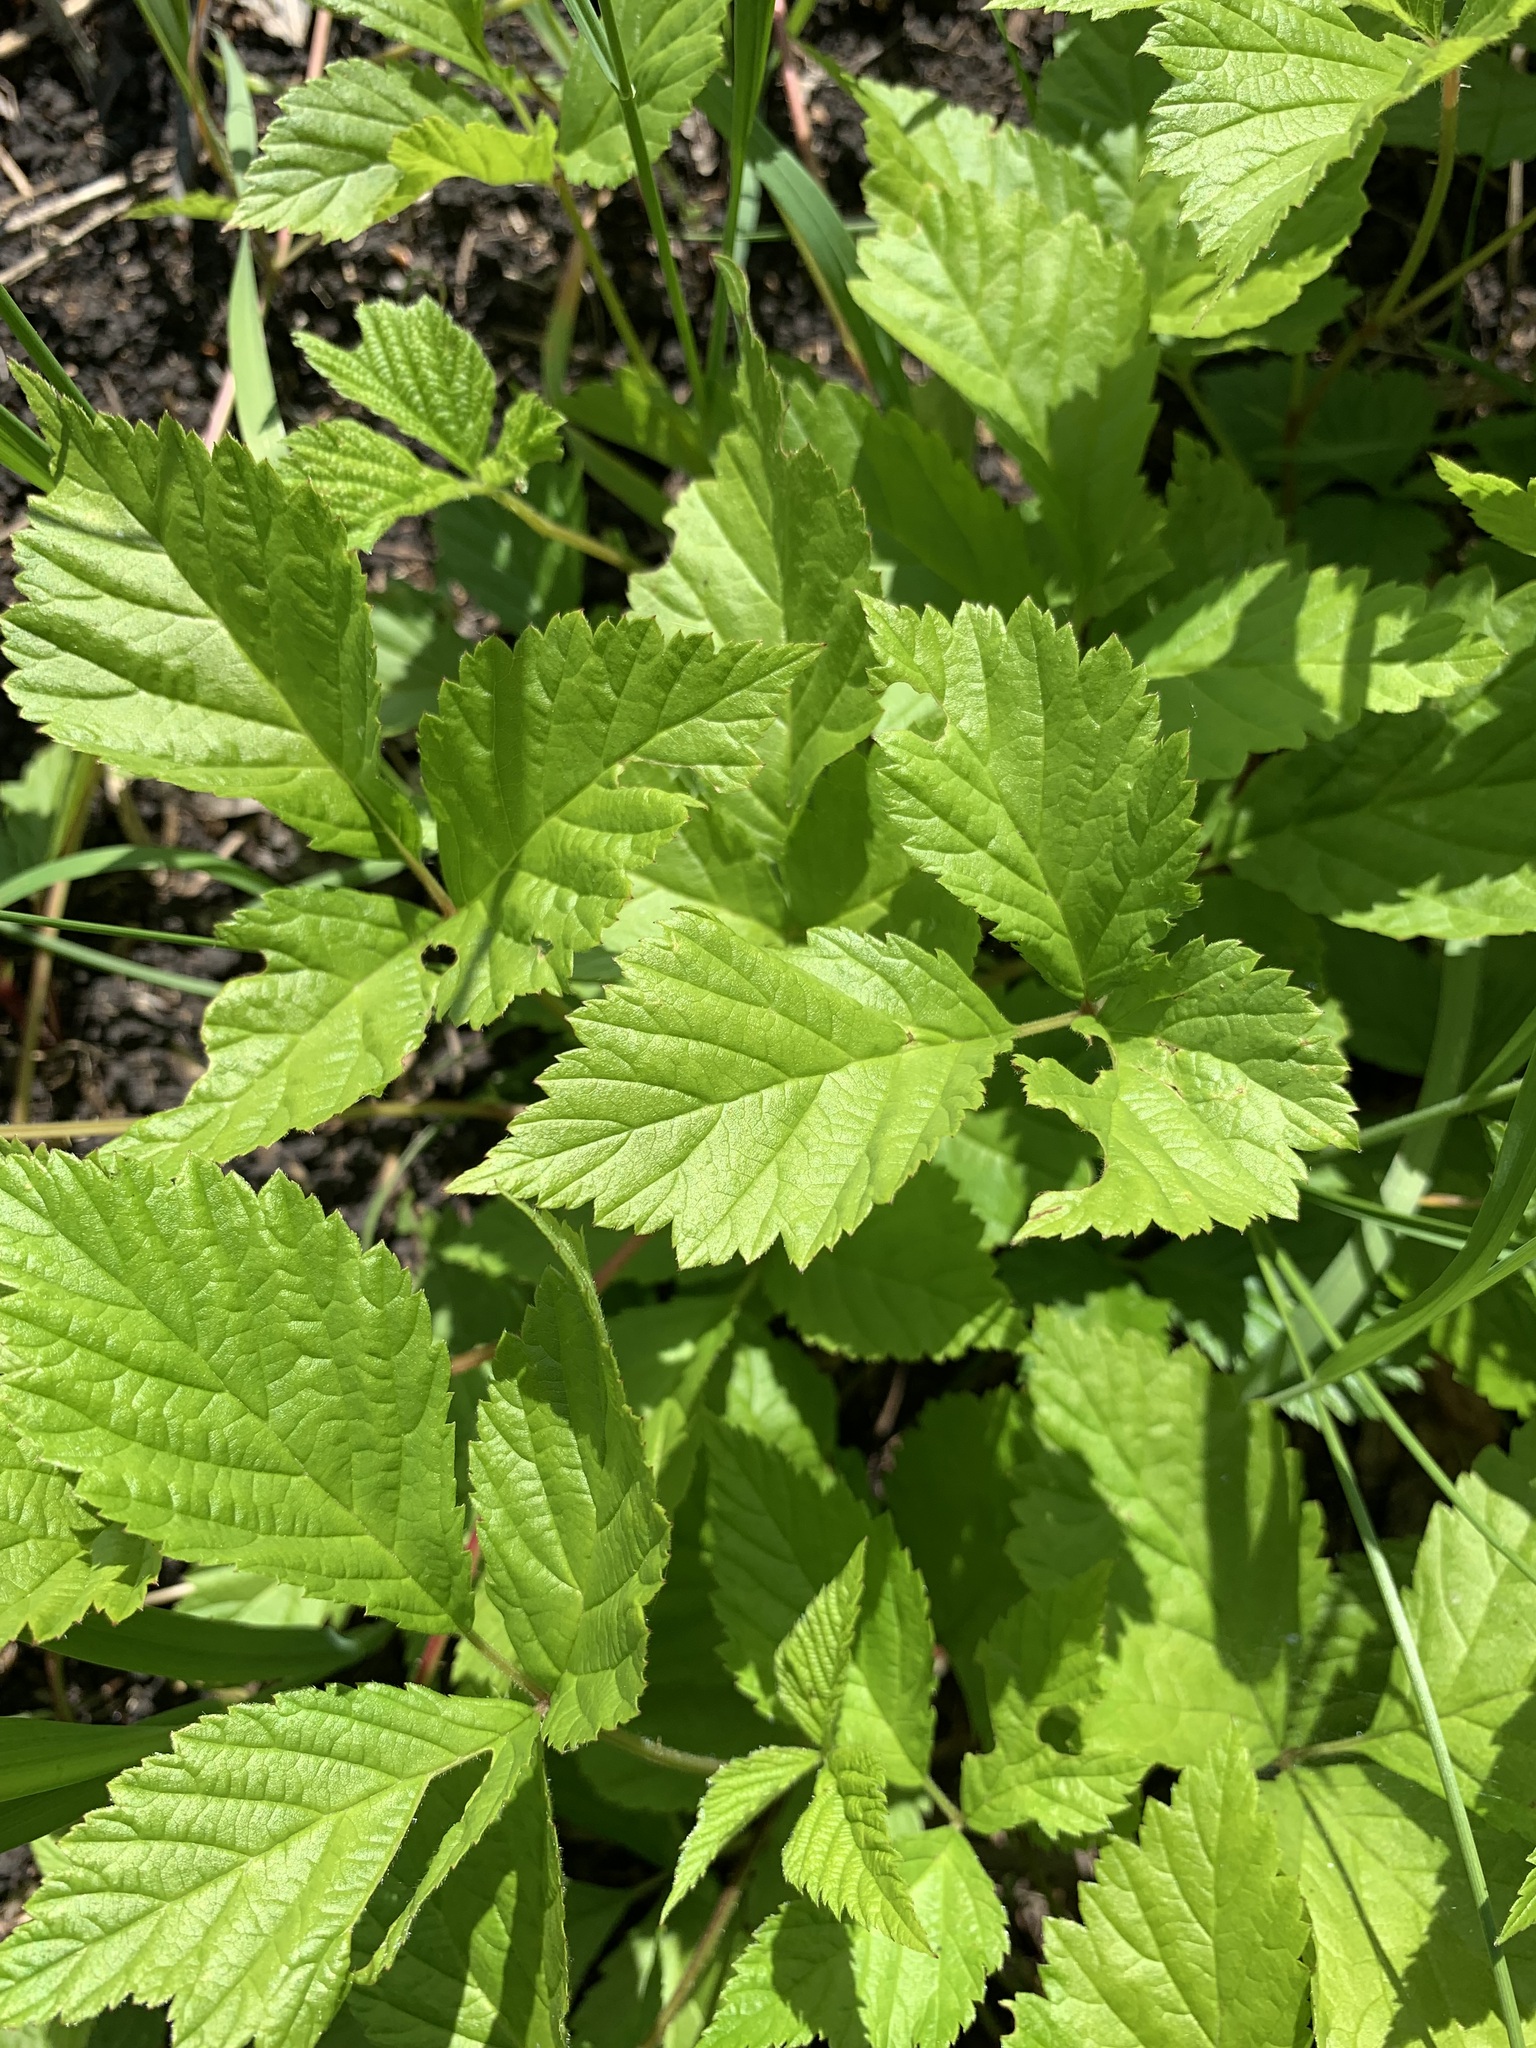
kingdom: Plantae
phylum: Tracheophyta
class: Magnoliopsida
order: Rosales
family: Rosaceae
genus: Rubus
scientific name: Rubus saxatilis
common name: Stone bramble
